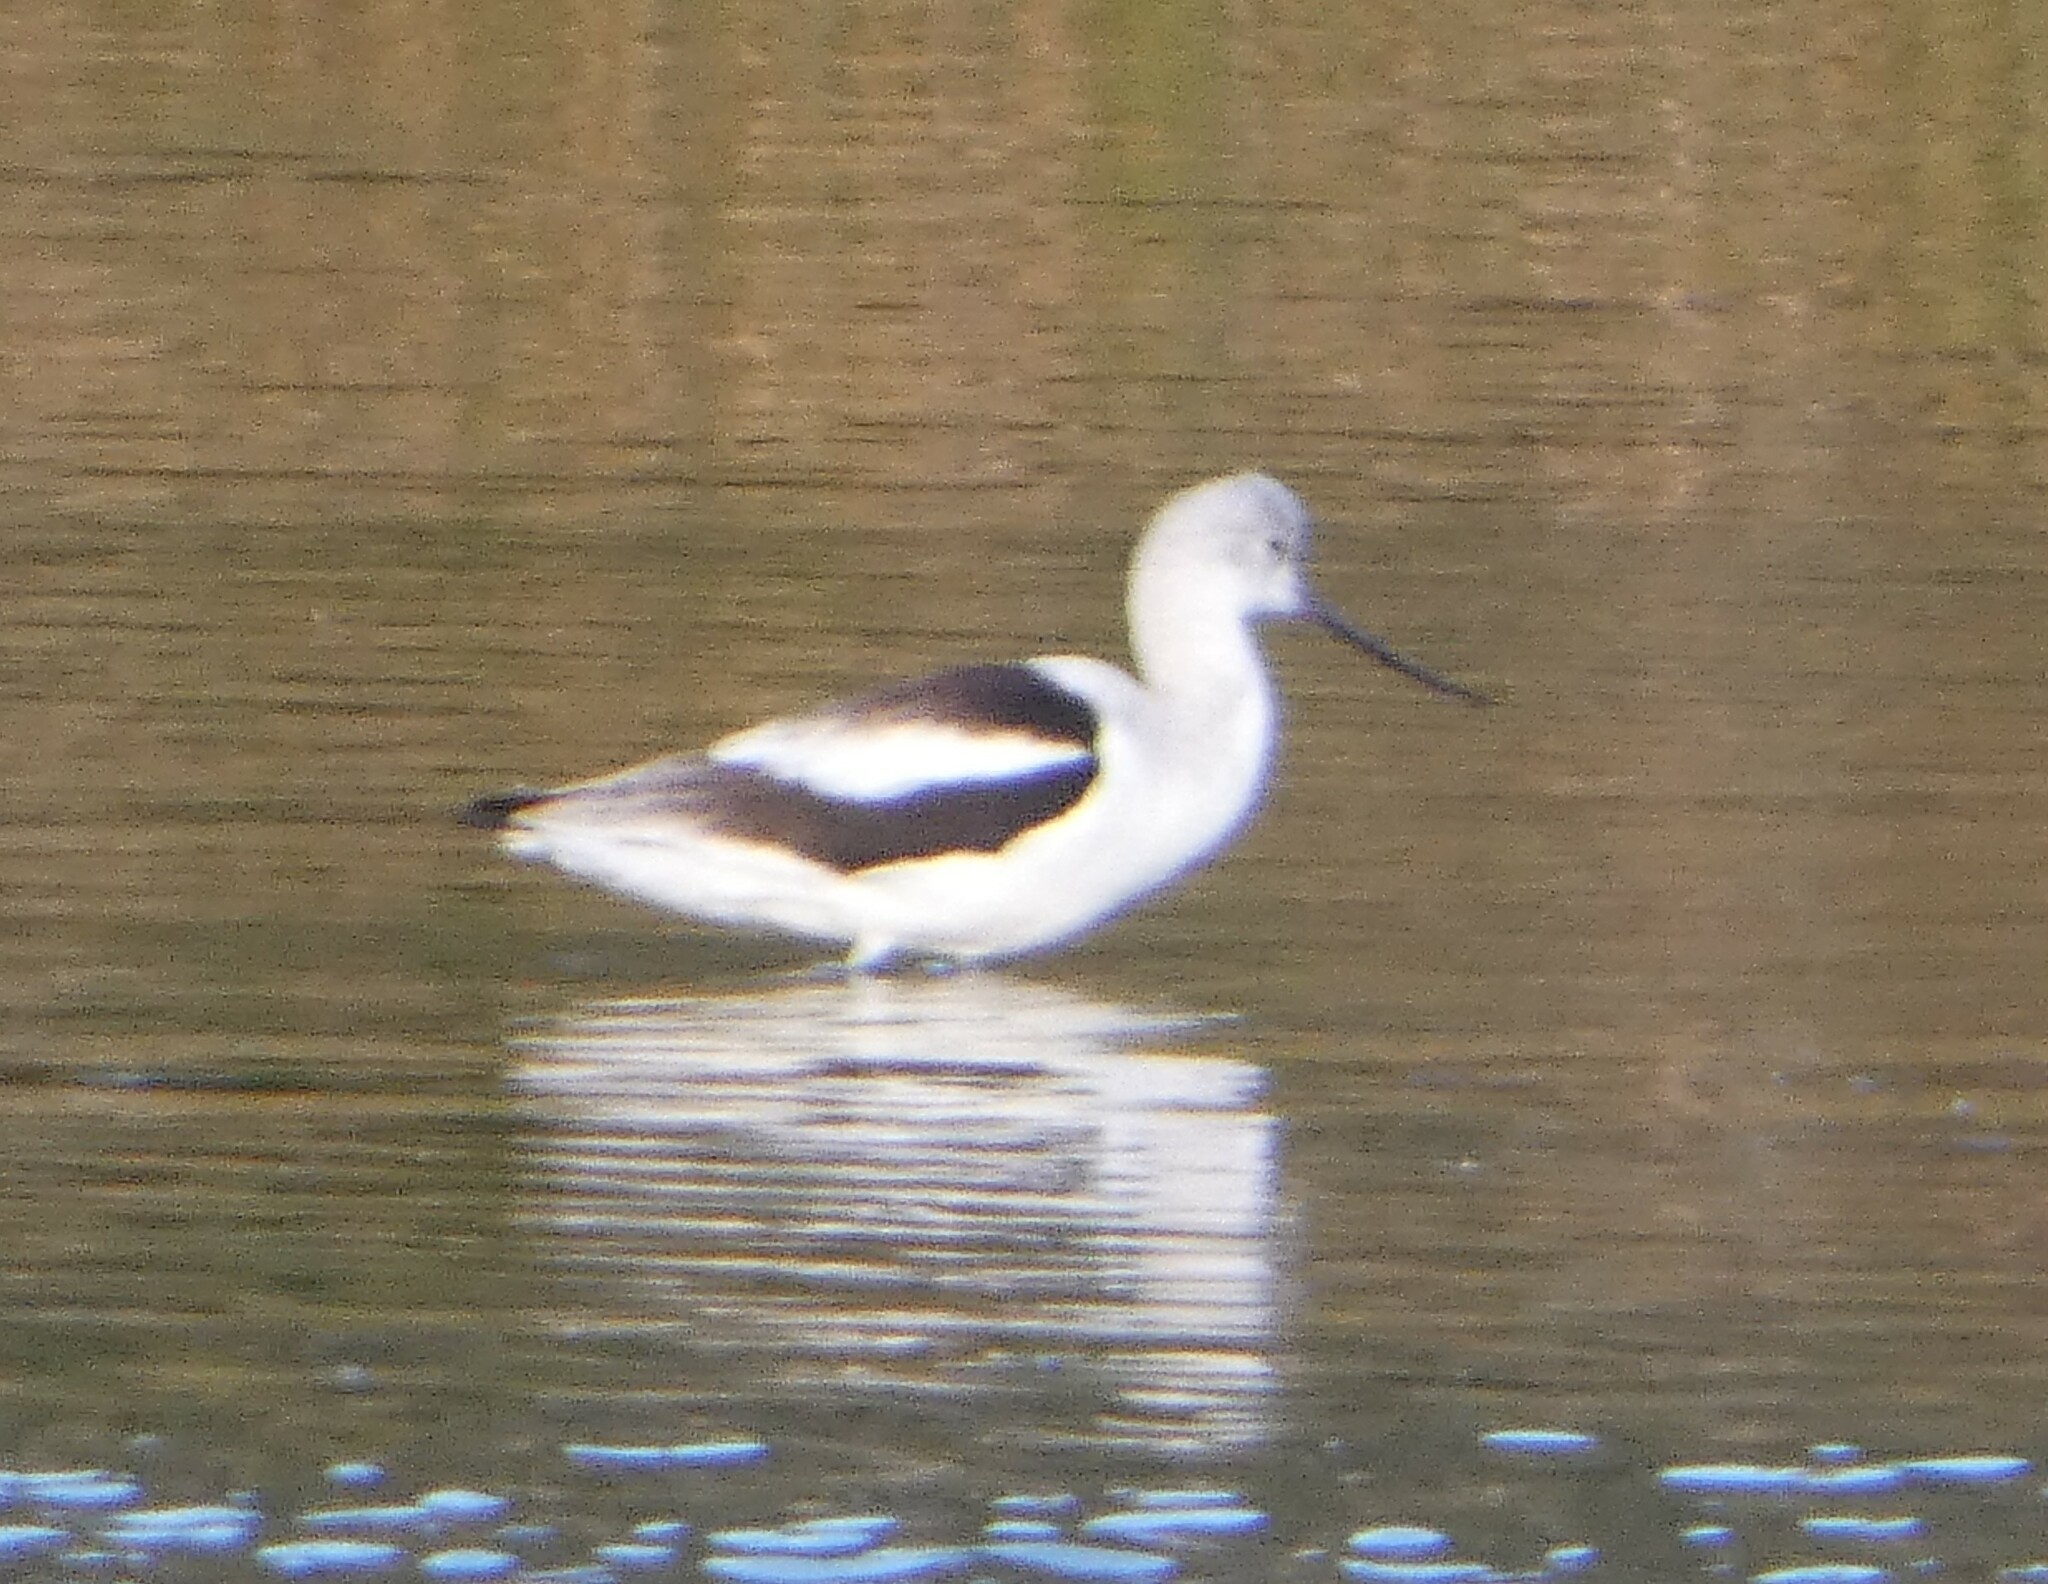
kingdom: Animalia
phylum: Chordata
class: Aves
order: Charadriiformes
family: Recurvirostridae
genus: Recurvirostra
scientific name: Recurvirostra americana
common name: American avocet
